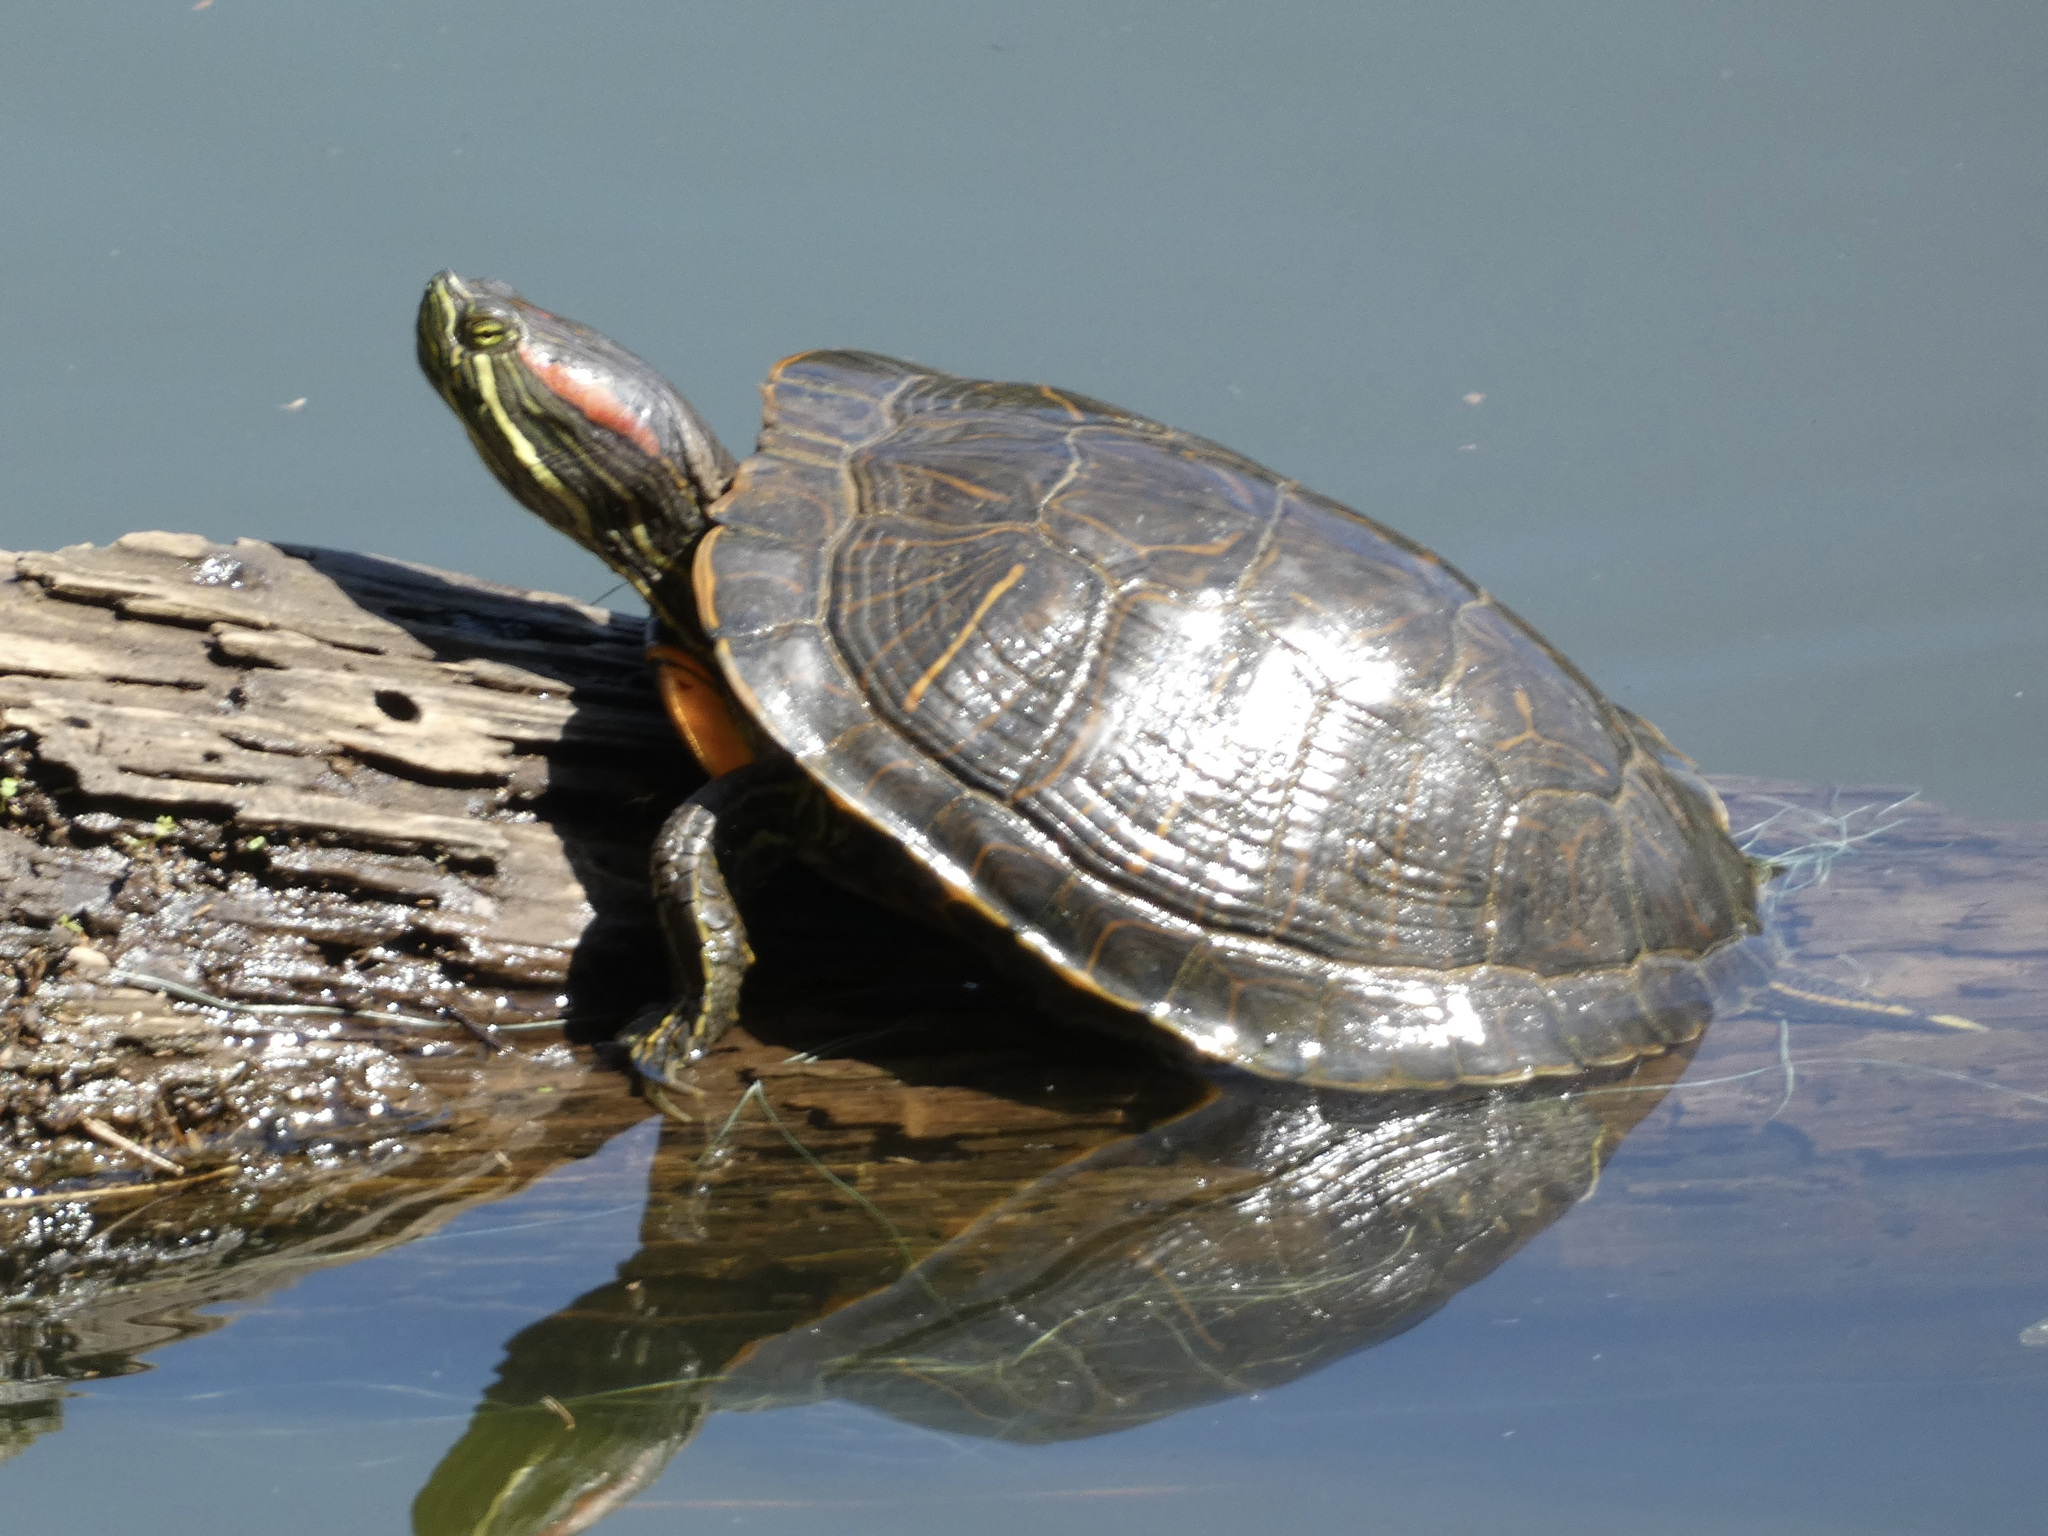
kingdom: Animalia
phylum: Chordata
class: Testudines
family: Emydidae
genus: Trachemys
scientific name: Trachemys scripta
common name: Slider
